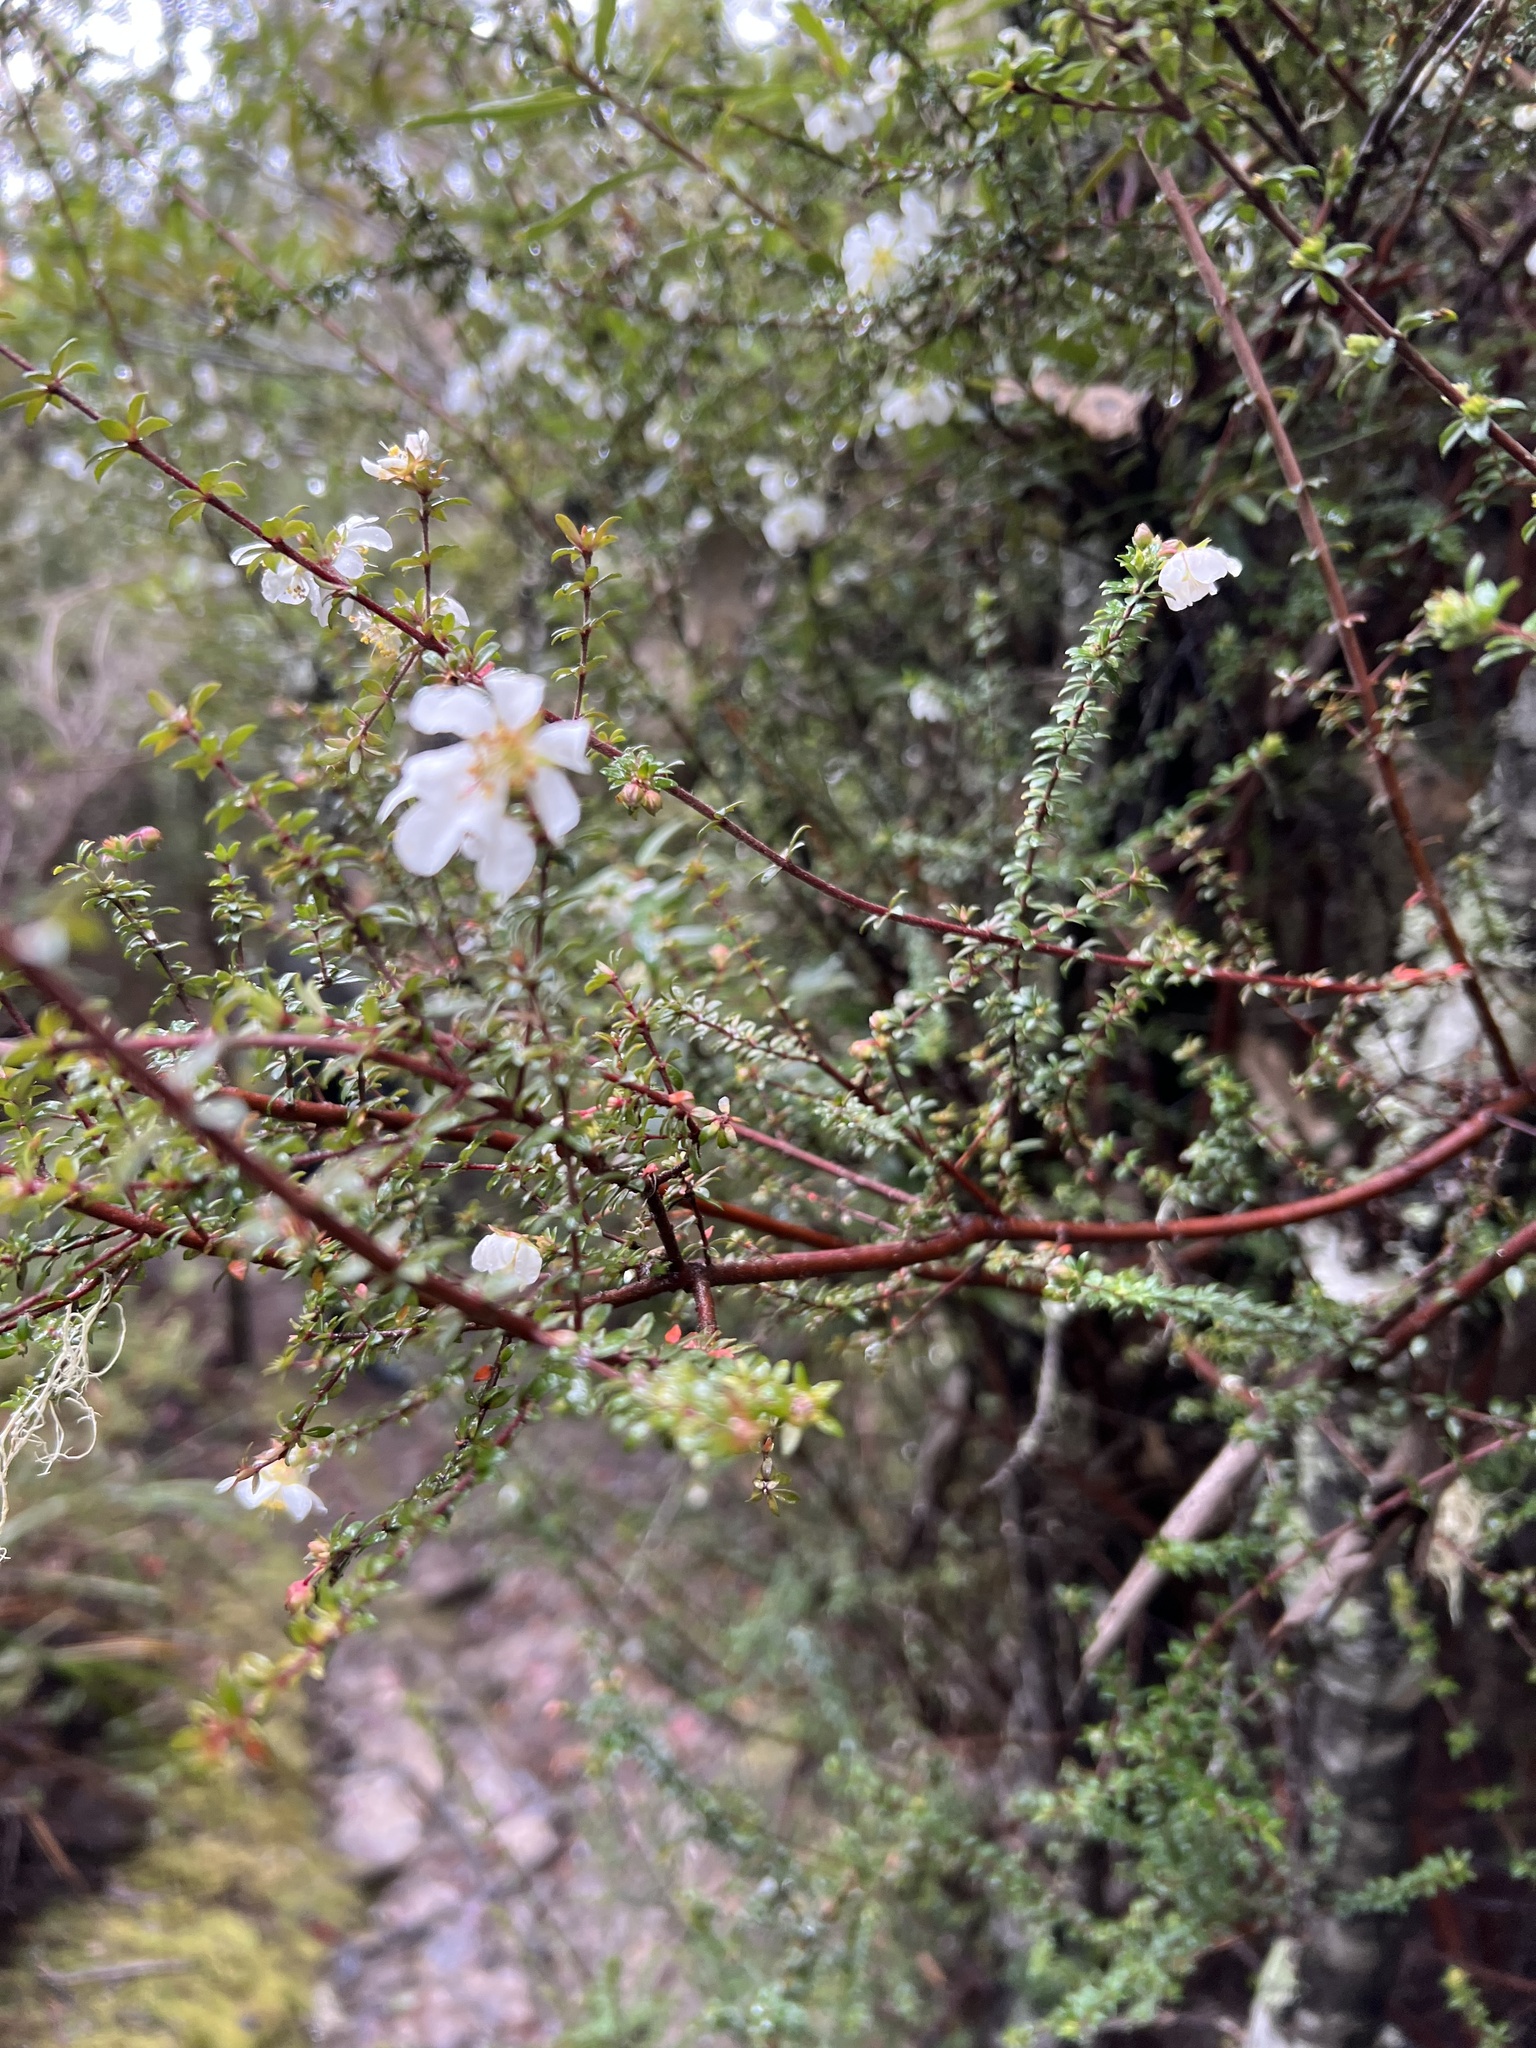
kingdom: Plantae
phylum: Tracheophyta
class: Magnoliopsida
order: Oxalidales
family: Cunoniaceae
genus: Bauera
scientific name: Bauera rubioides
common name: River-rose
